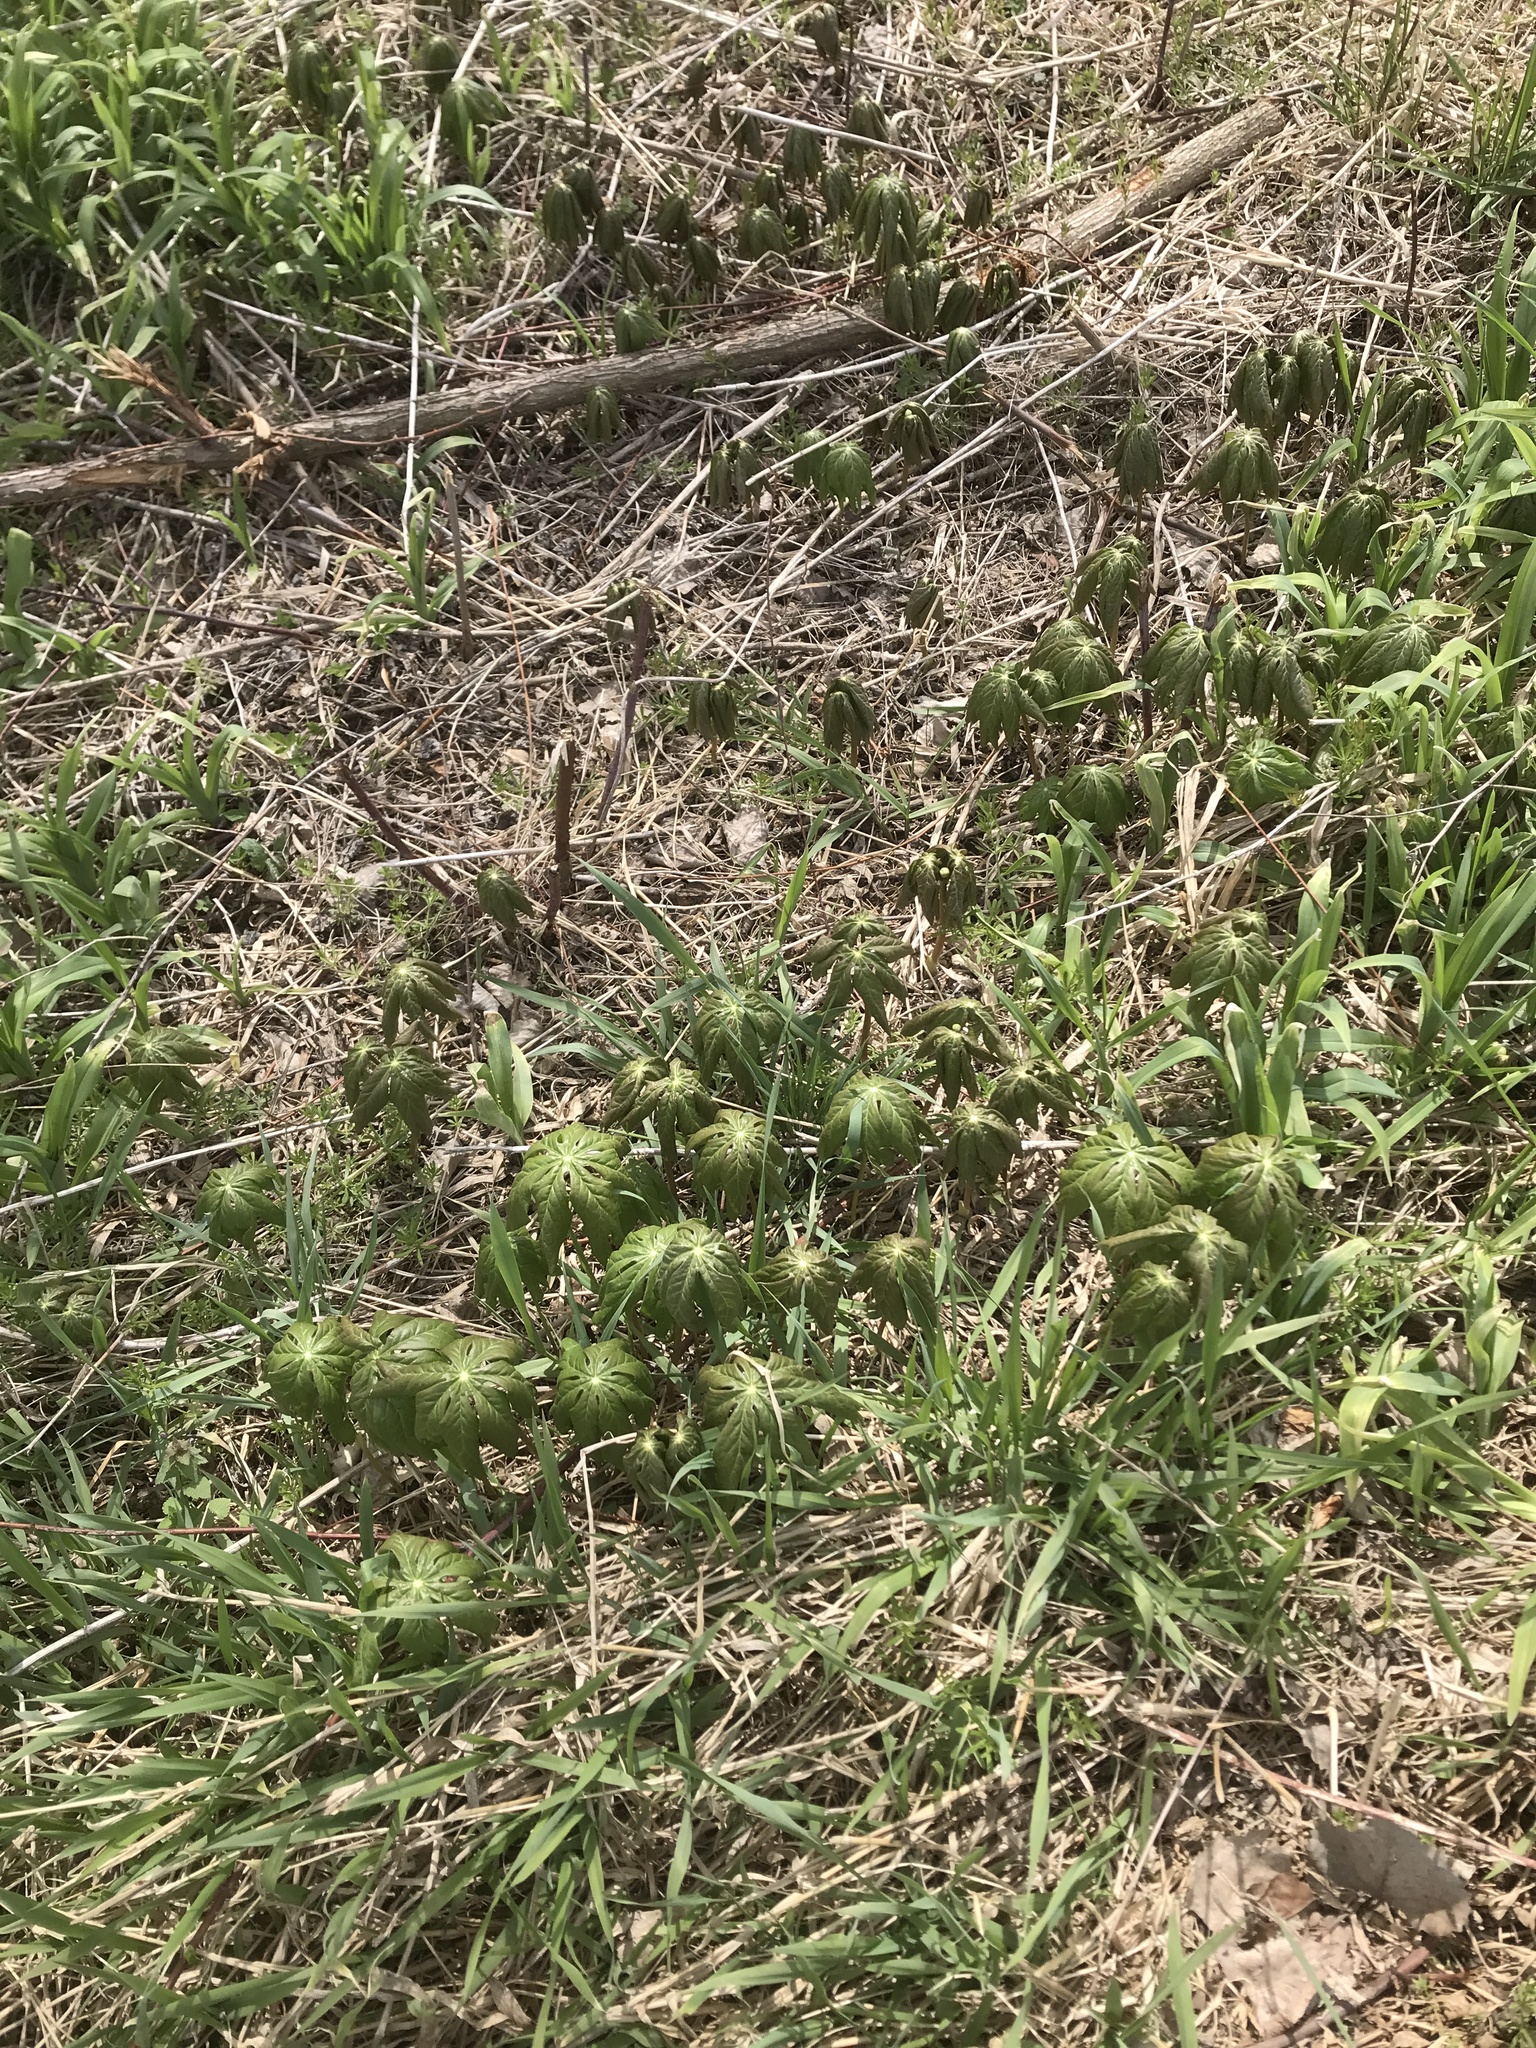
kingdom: Plantae
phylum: Tracheophyta
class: Magnoliopsida
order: Ranunculales
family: Berberidaceae
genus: Podophyllum
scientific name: Podophyllum peltatum
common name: Wild mandrake
